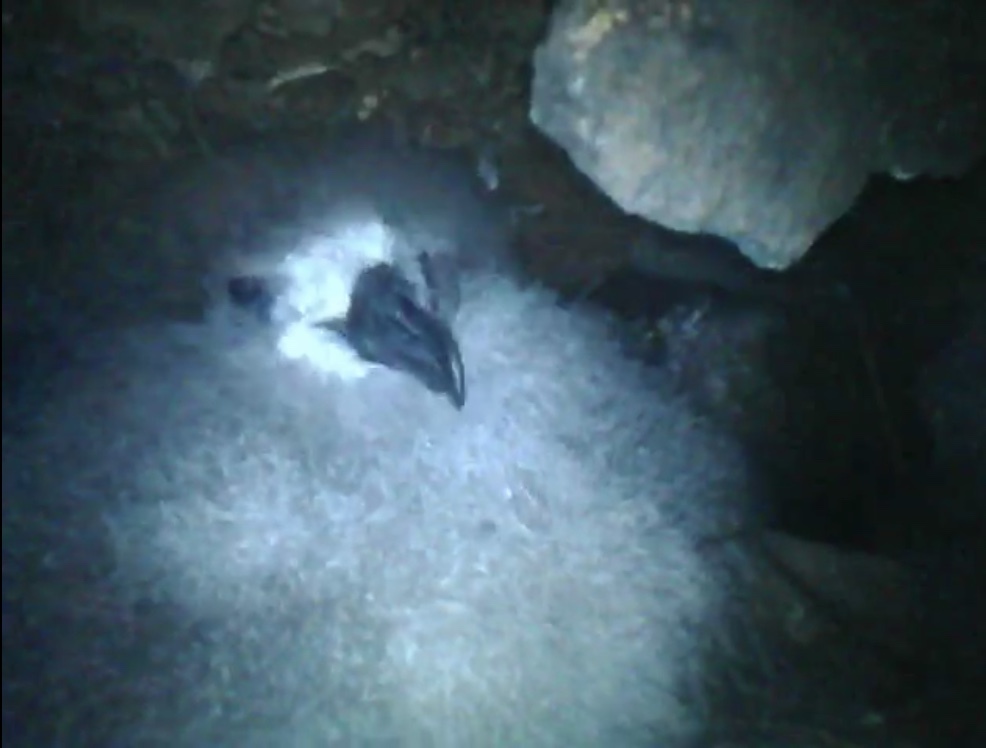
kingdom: Animalia
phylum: Chordata
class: Aves
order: Procellariiformes
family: Procellariidae
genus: Pterodroma
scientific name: Pterodroma nigripennis
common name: Black-winged petrel
